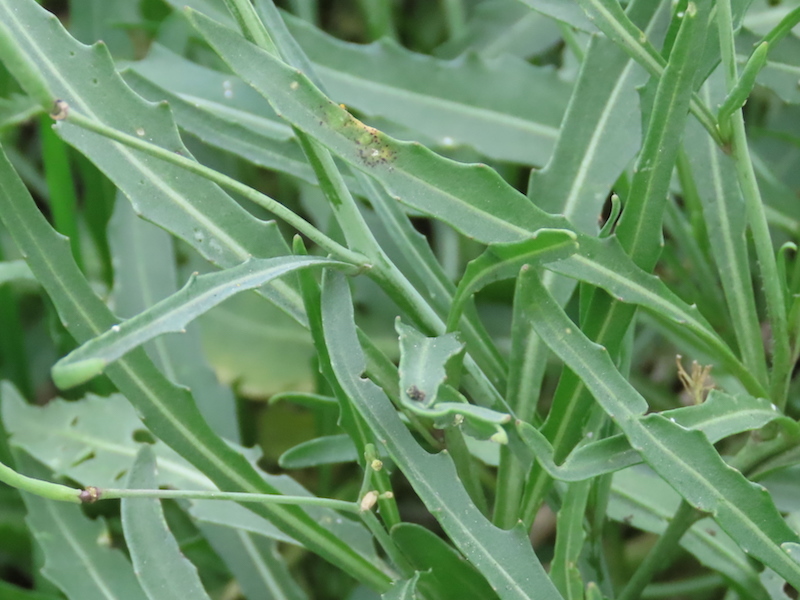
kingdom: Plantae
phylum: Tracheophyta
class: Magnoliopsida
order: Brassicales
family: Brassicaceae
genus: Diplotaxis
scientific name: Diplotaxis tenuifolia
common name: Perennial wall-rocket
